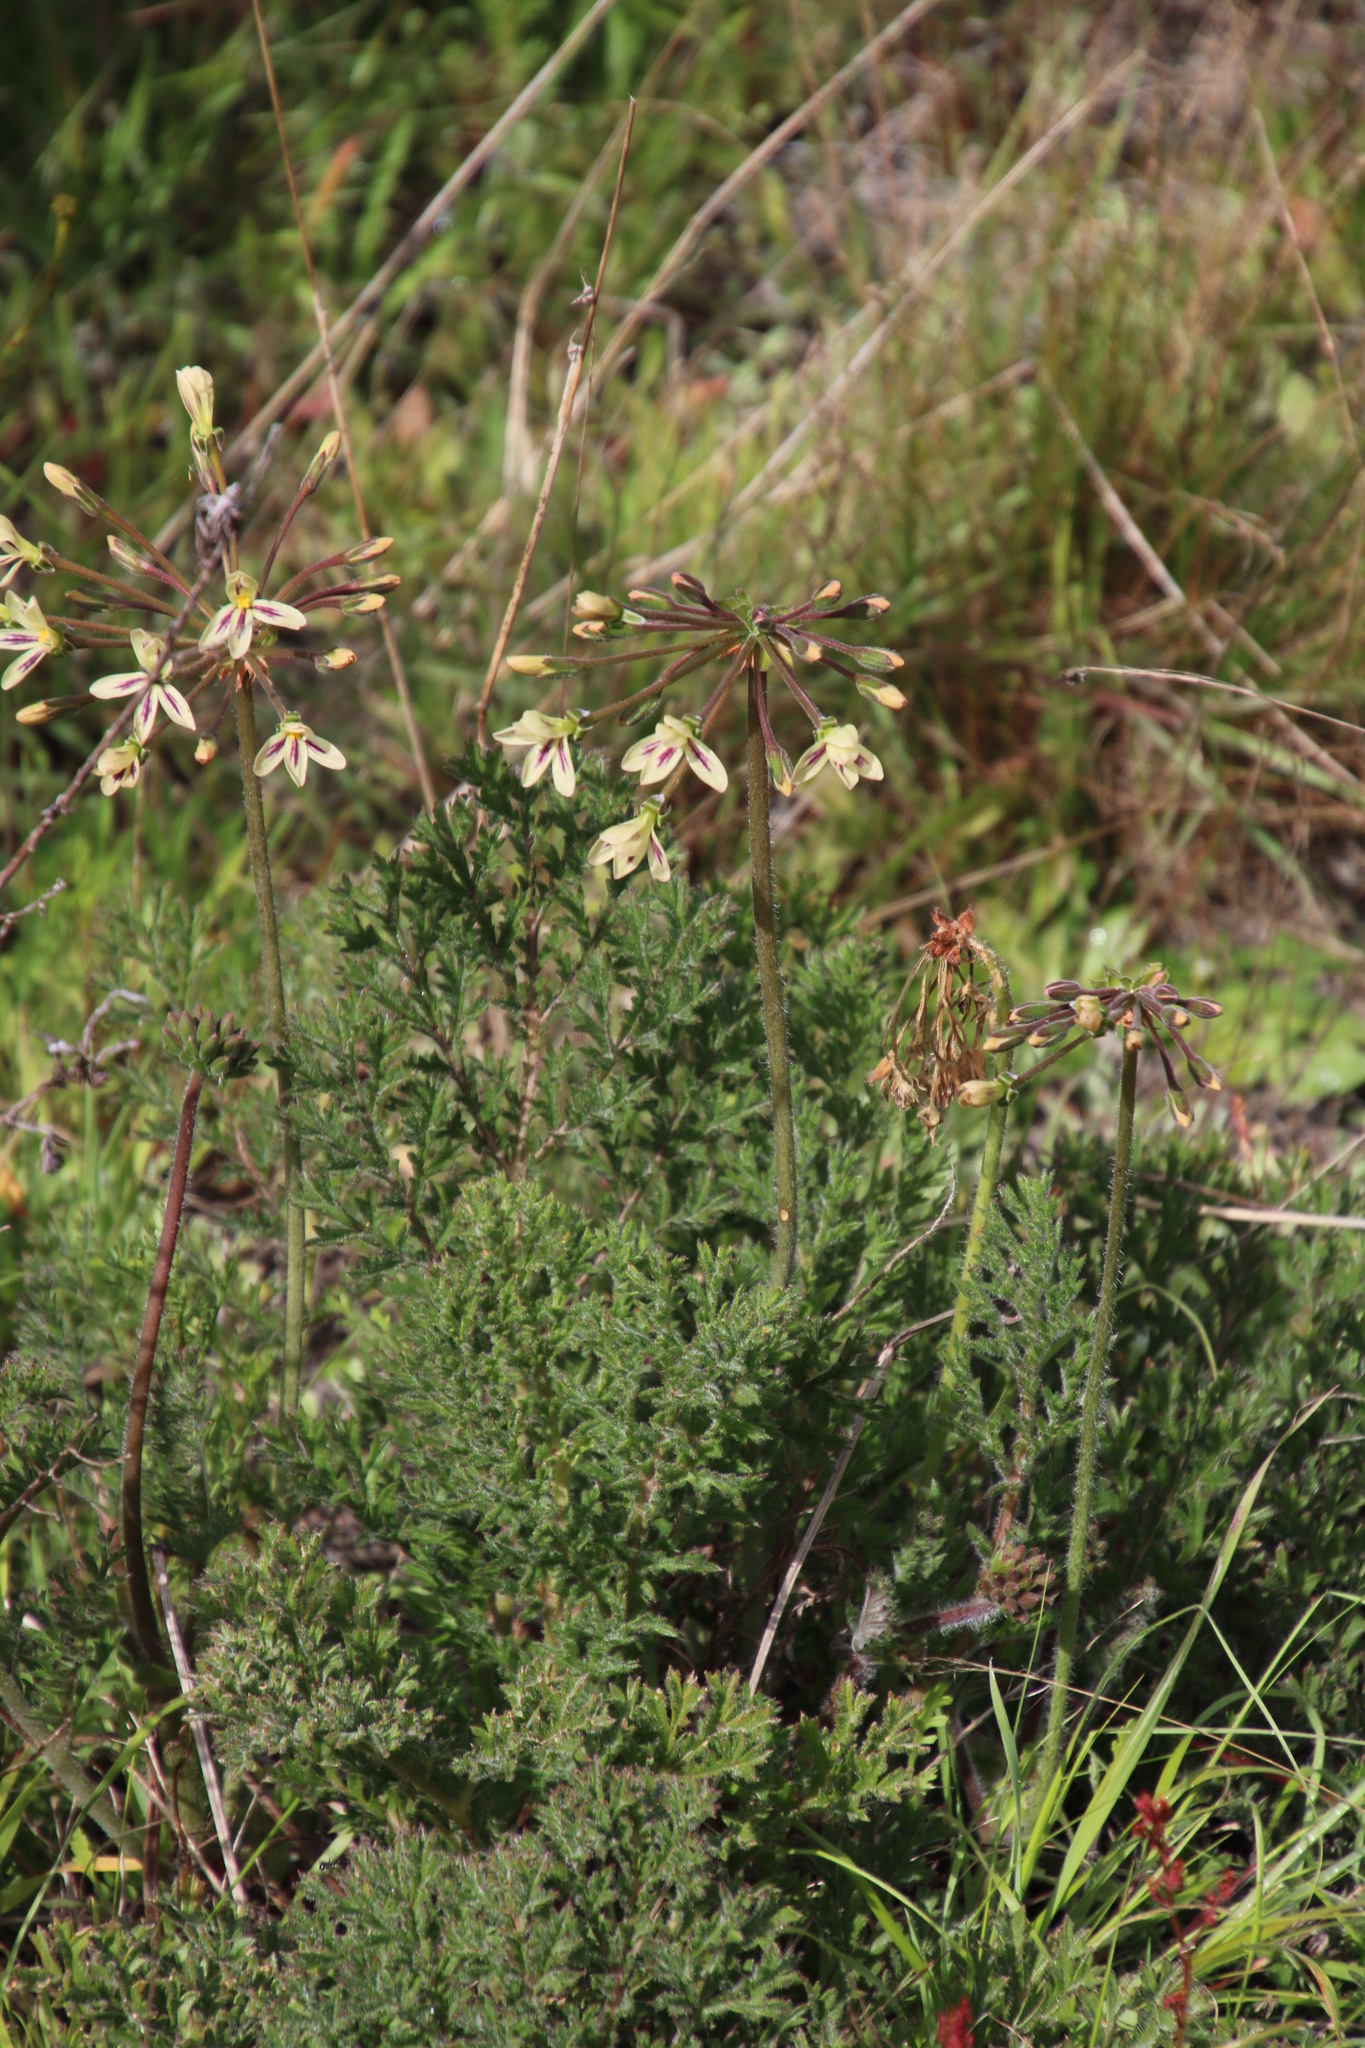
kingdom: Plantae
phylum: Tracheophyta
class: Magnoliopsida
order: Geraniales
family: Geraniaceae
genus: Pelargonium
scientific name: Pelargonium triste
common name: Night-scent pelargonium
